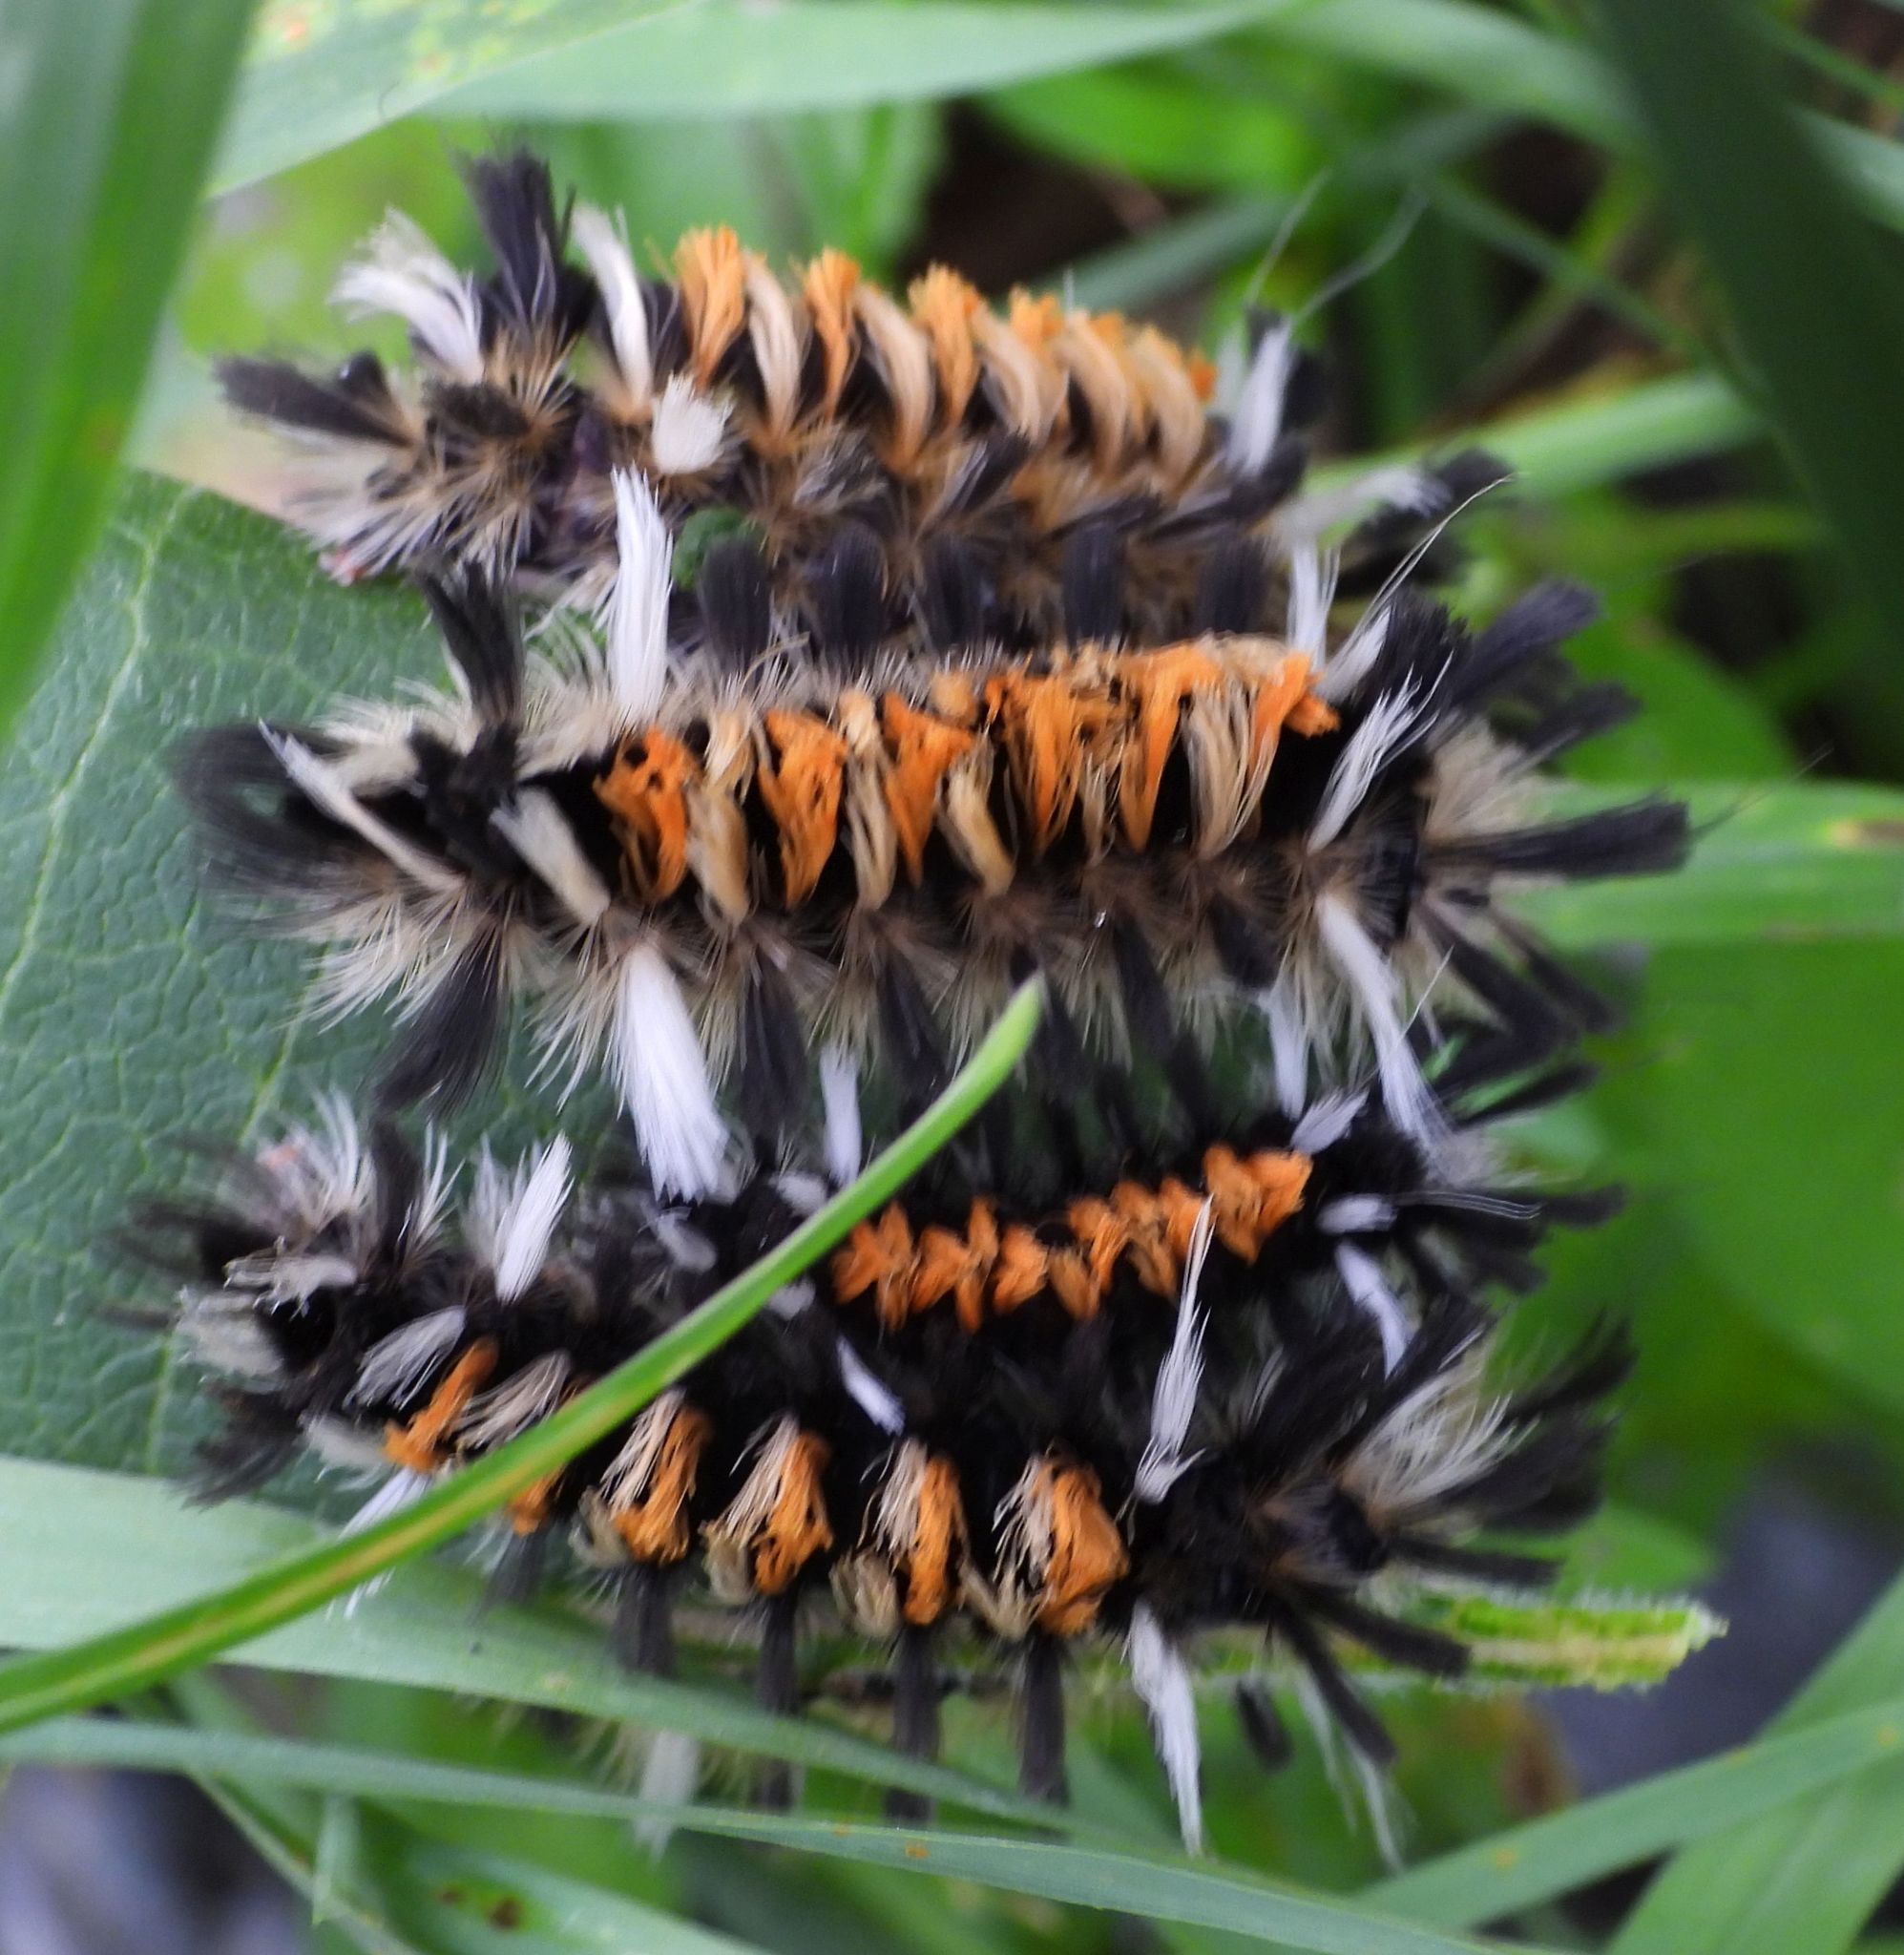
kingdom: Animalia
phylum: Arthropoda
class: Insecta
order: Lepidoptera
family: Erebidae
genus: Euchaetes
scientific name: Euchaetes egle
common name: Milkweed tussock moth
